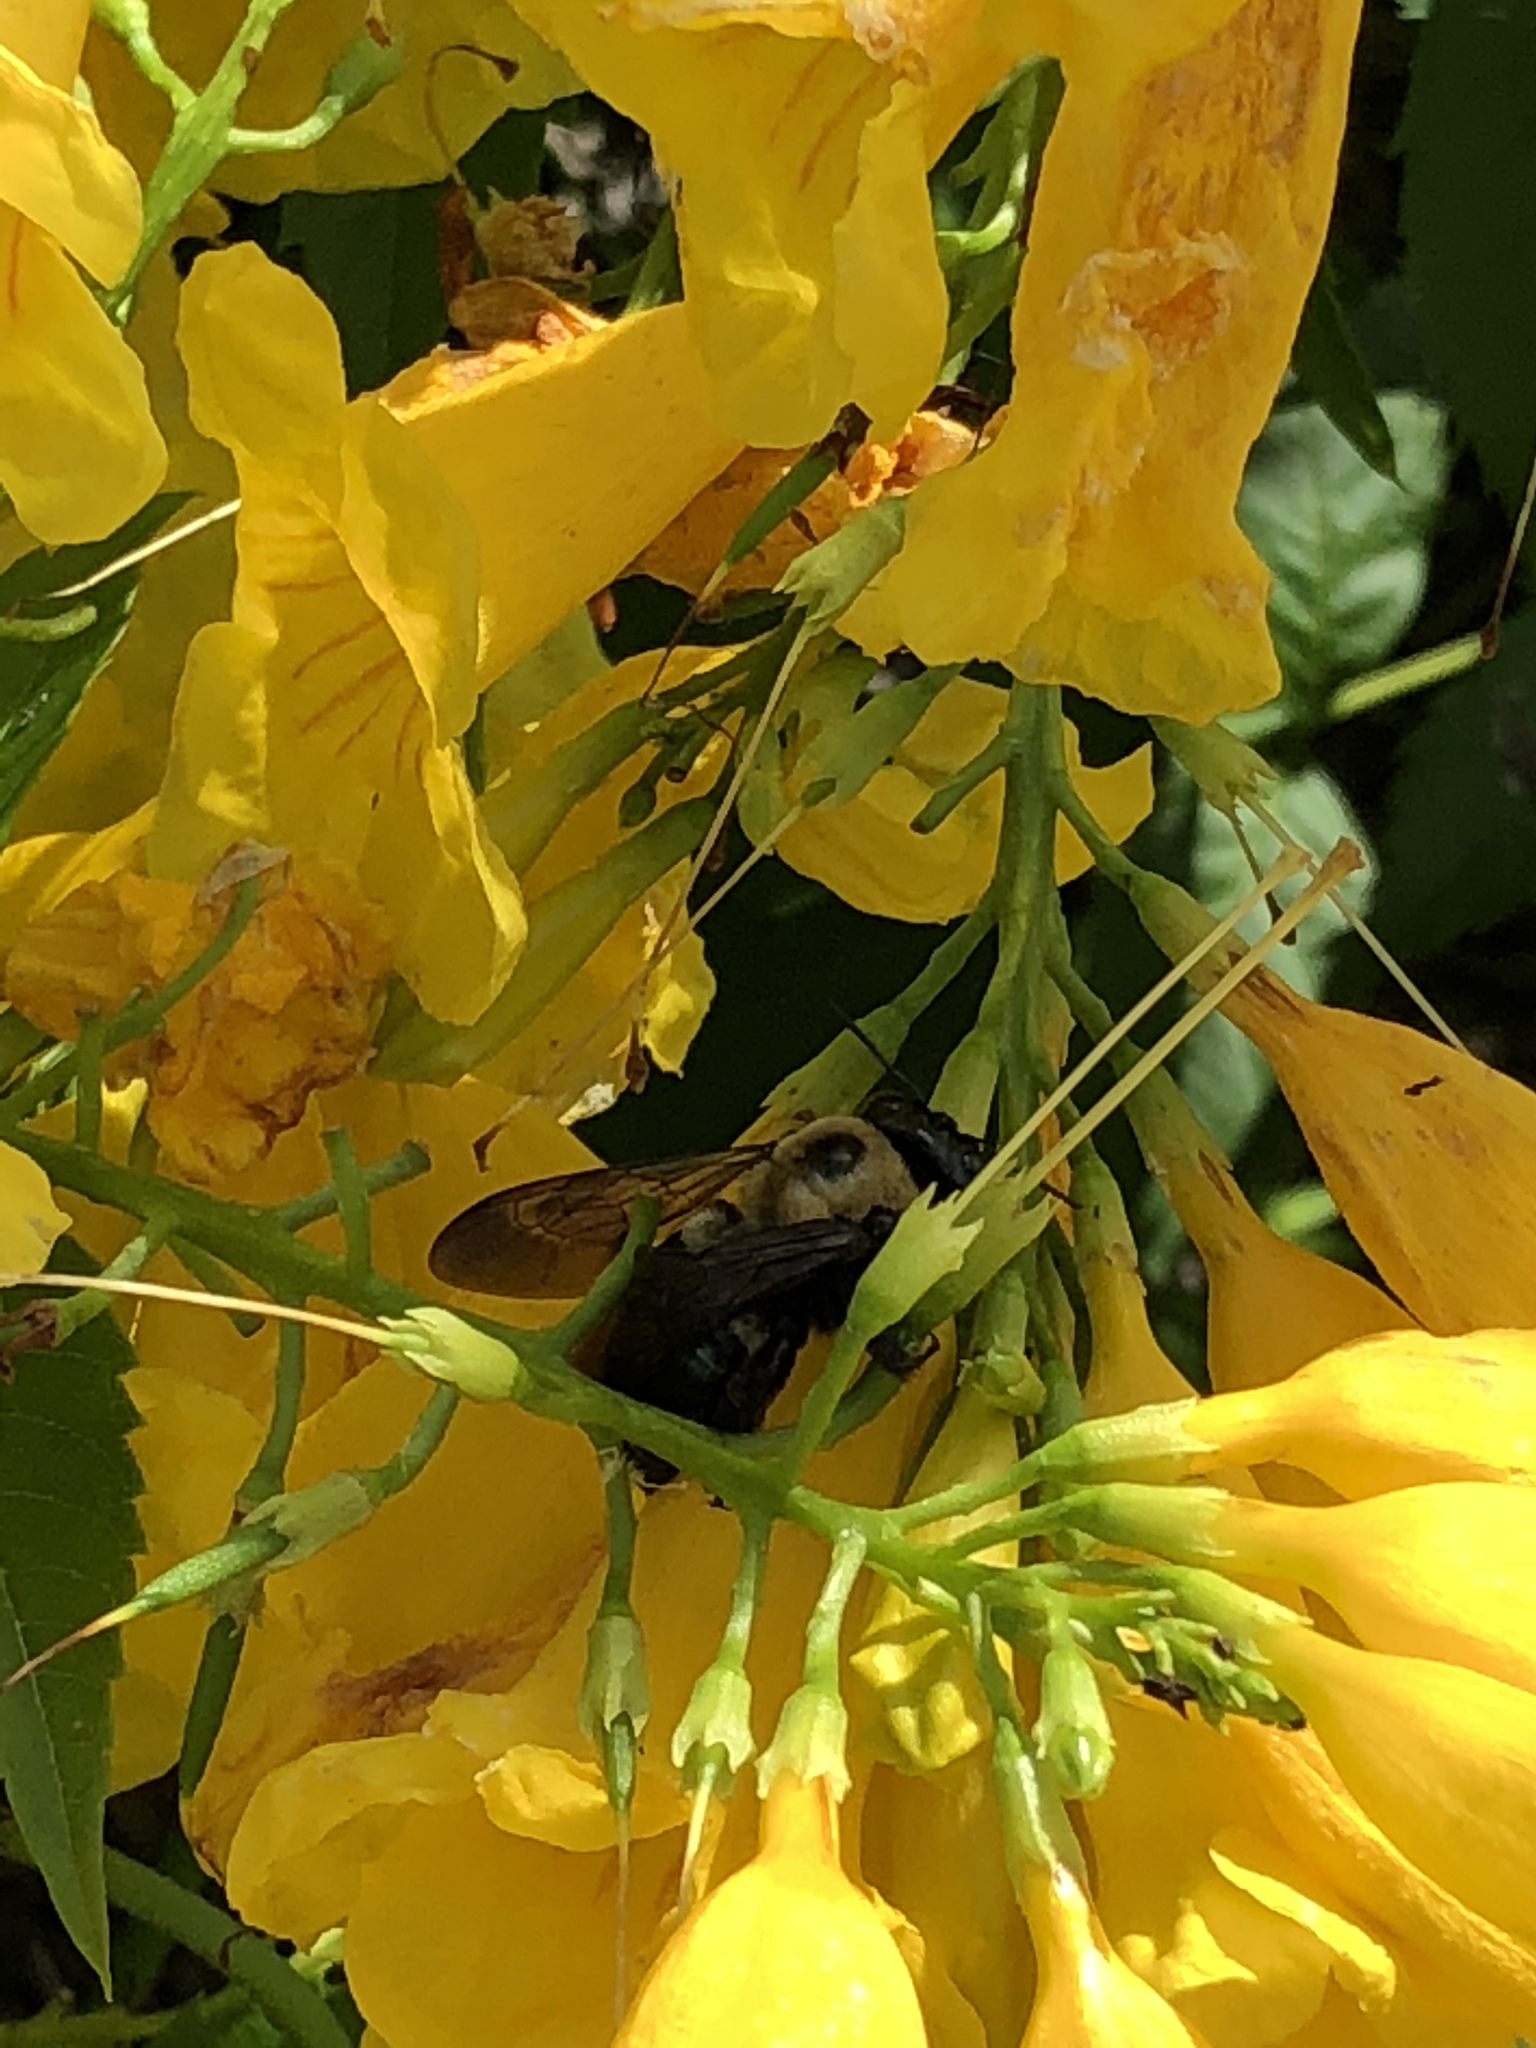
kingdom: Animalia
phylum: Arthropoda
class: Insecta
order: Hymenoptera
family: Apidae
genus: Xylocopa
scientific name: Xylocopa virginica
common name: Carpenter bee
